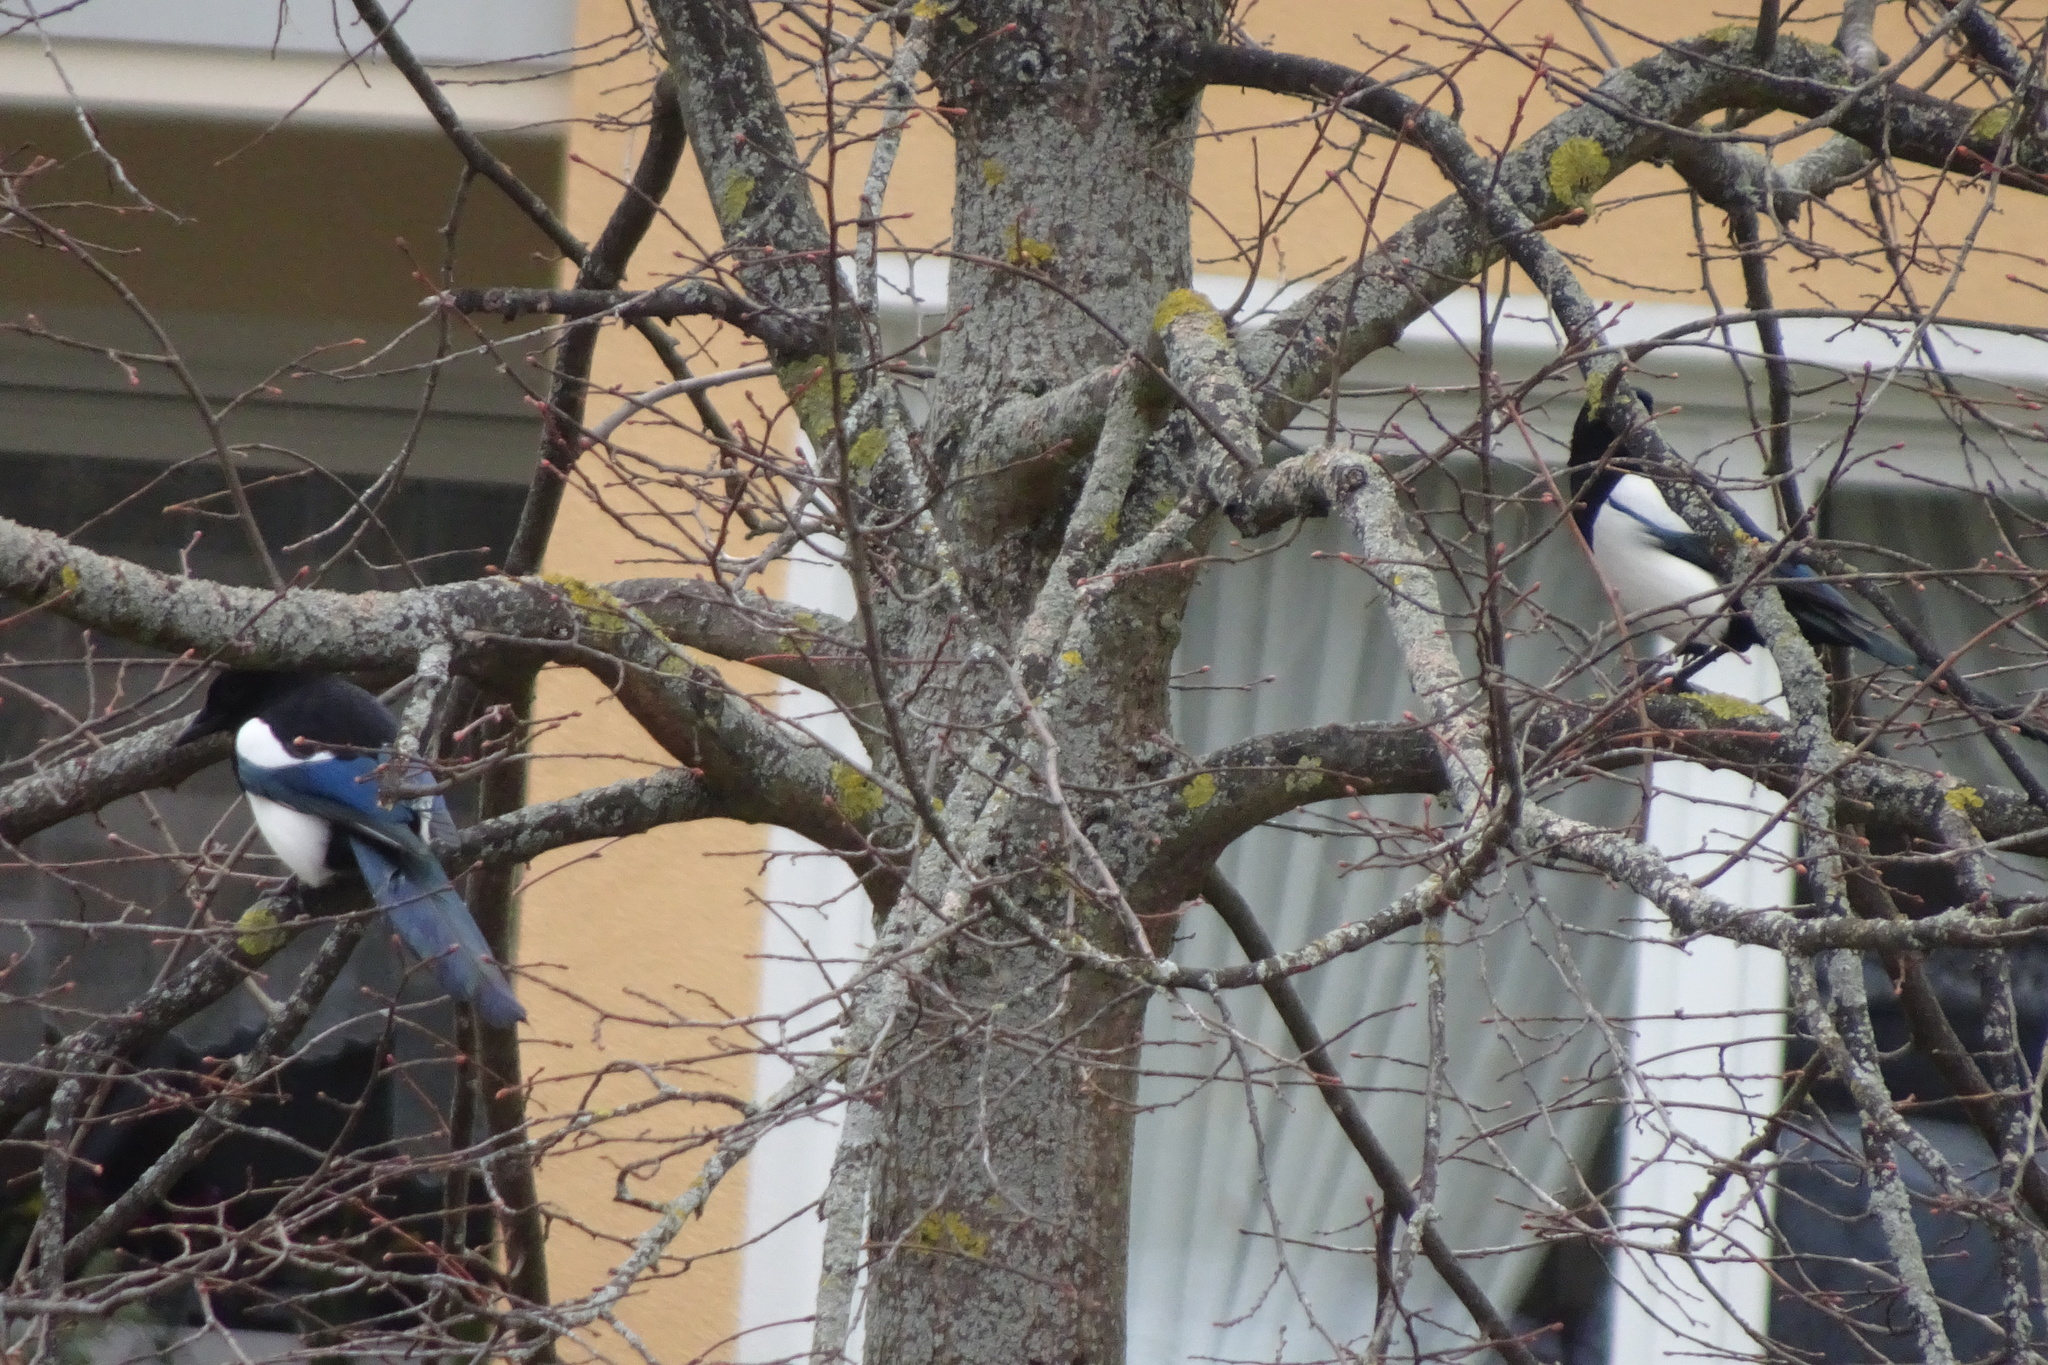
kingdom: Animalia
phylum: Chordata
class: Aves
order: Passeriformes
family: Corvidae
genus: Pica
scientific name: Pica pica
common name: Eurasian magpie
